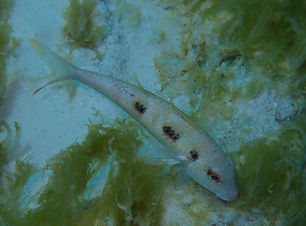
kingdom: Animalia
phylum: Chordata
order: Perciformes
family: Mullidae
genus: Pseudupeneus
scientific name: Pseudupeneus maculatus
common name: Spotted goatfish
